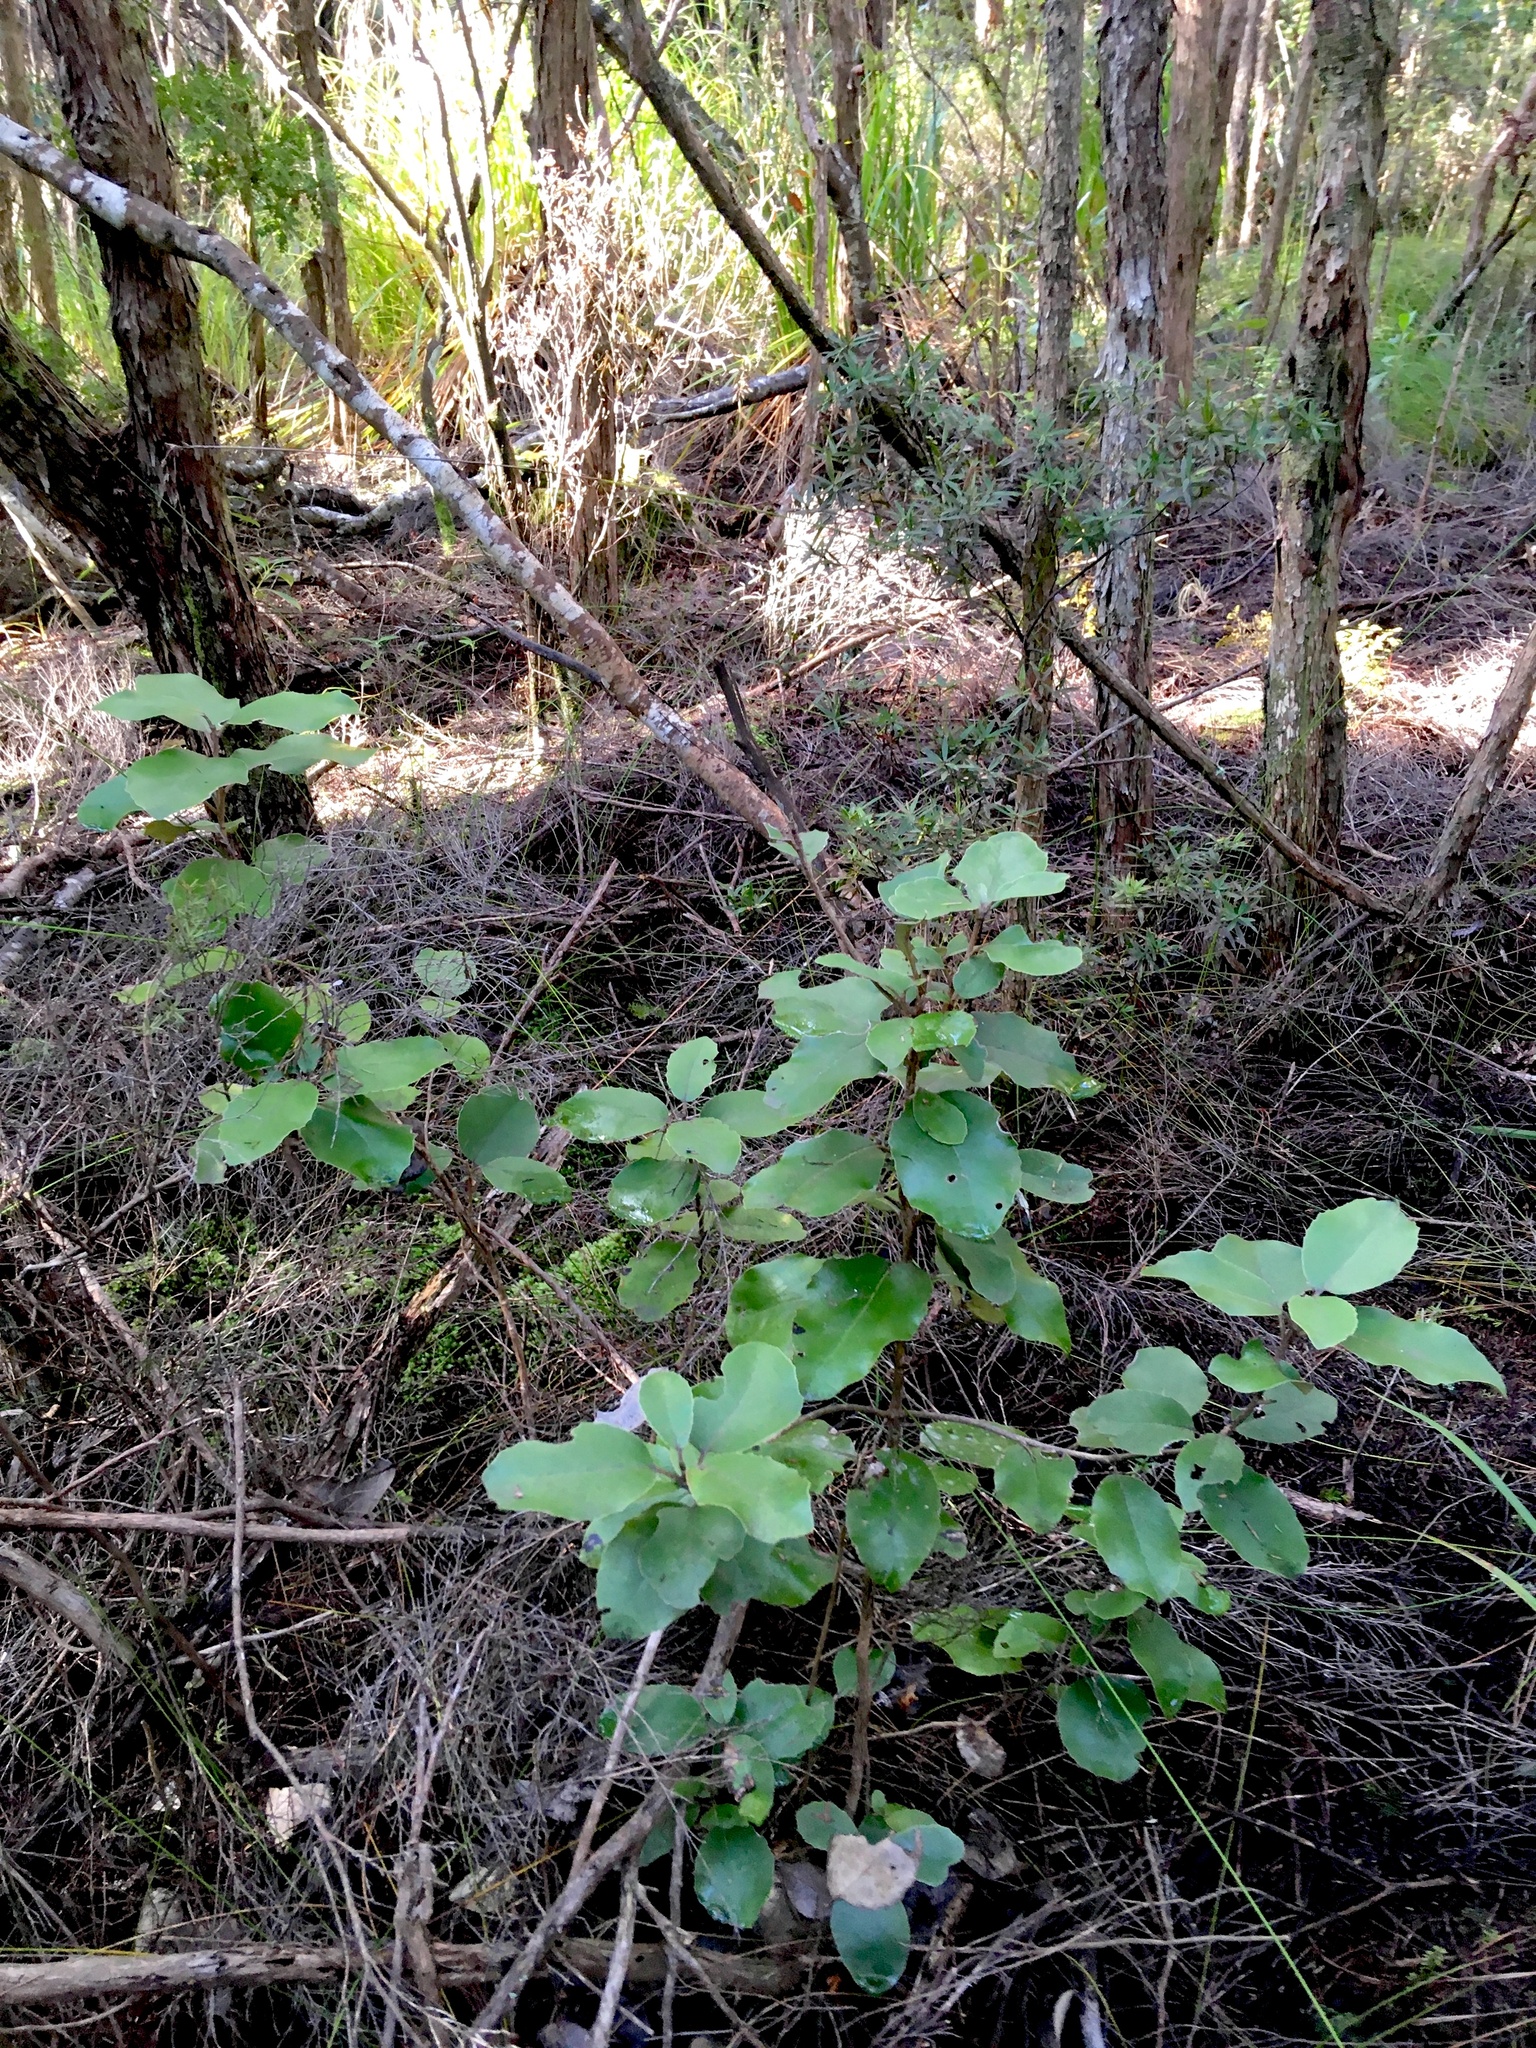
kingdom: Plantae
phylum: Tracheophyta
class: Magnoliopsida
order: Asterales
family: Asteraceae
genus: Olearia
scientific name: Olearia furfuracea
